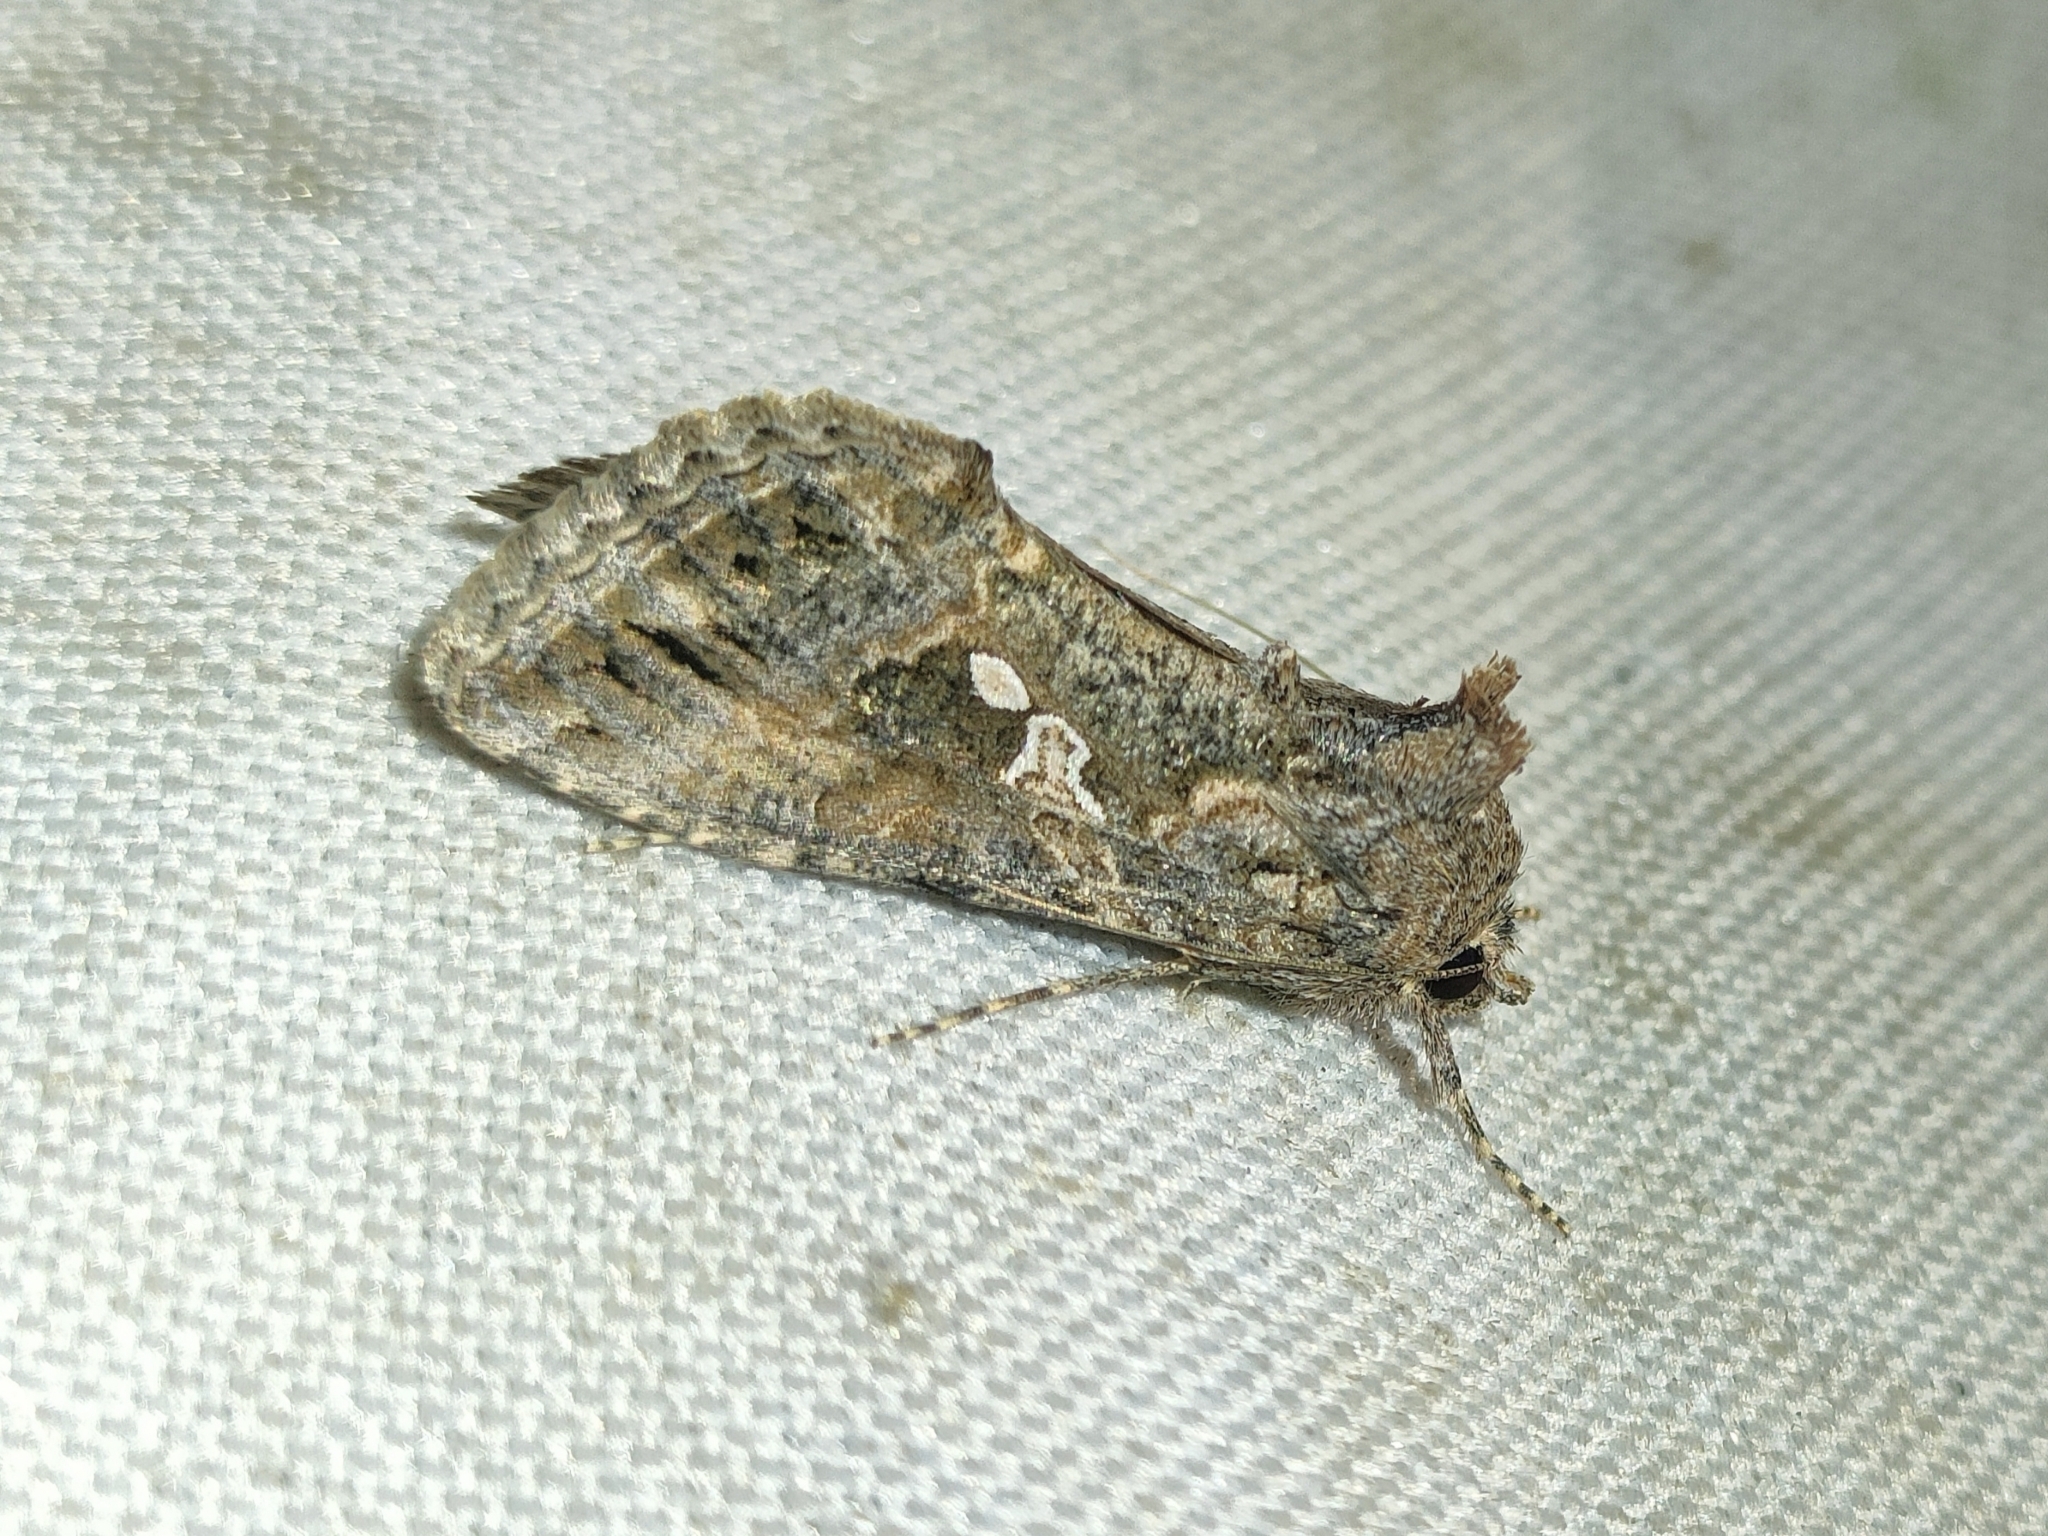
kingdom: Animalia
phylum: Arthropoda
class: Insecta
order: Lepidoptera
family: Noctuidae
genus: Trichoplusia
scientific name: Trichoplusia ni
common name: Ni moth
